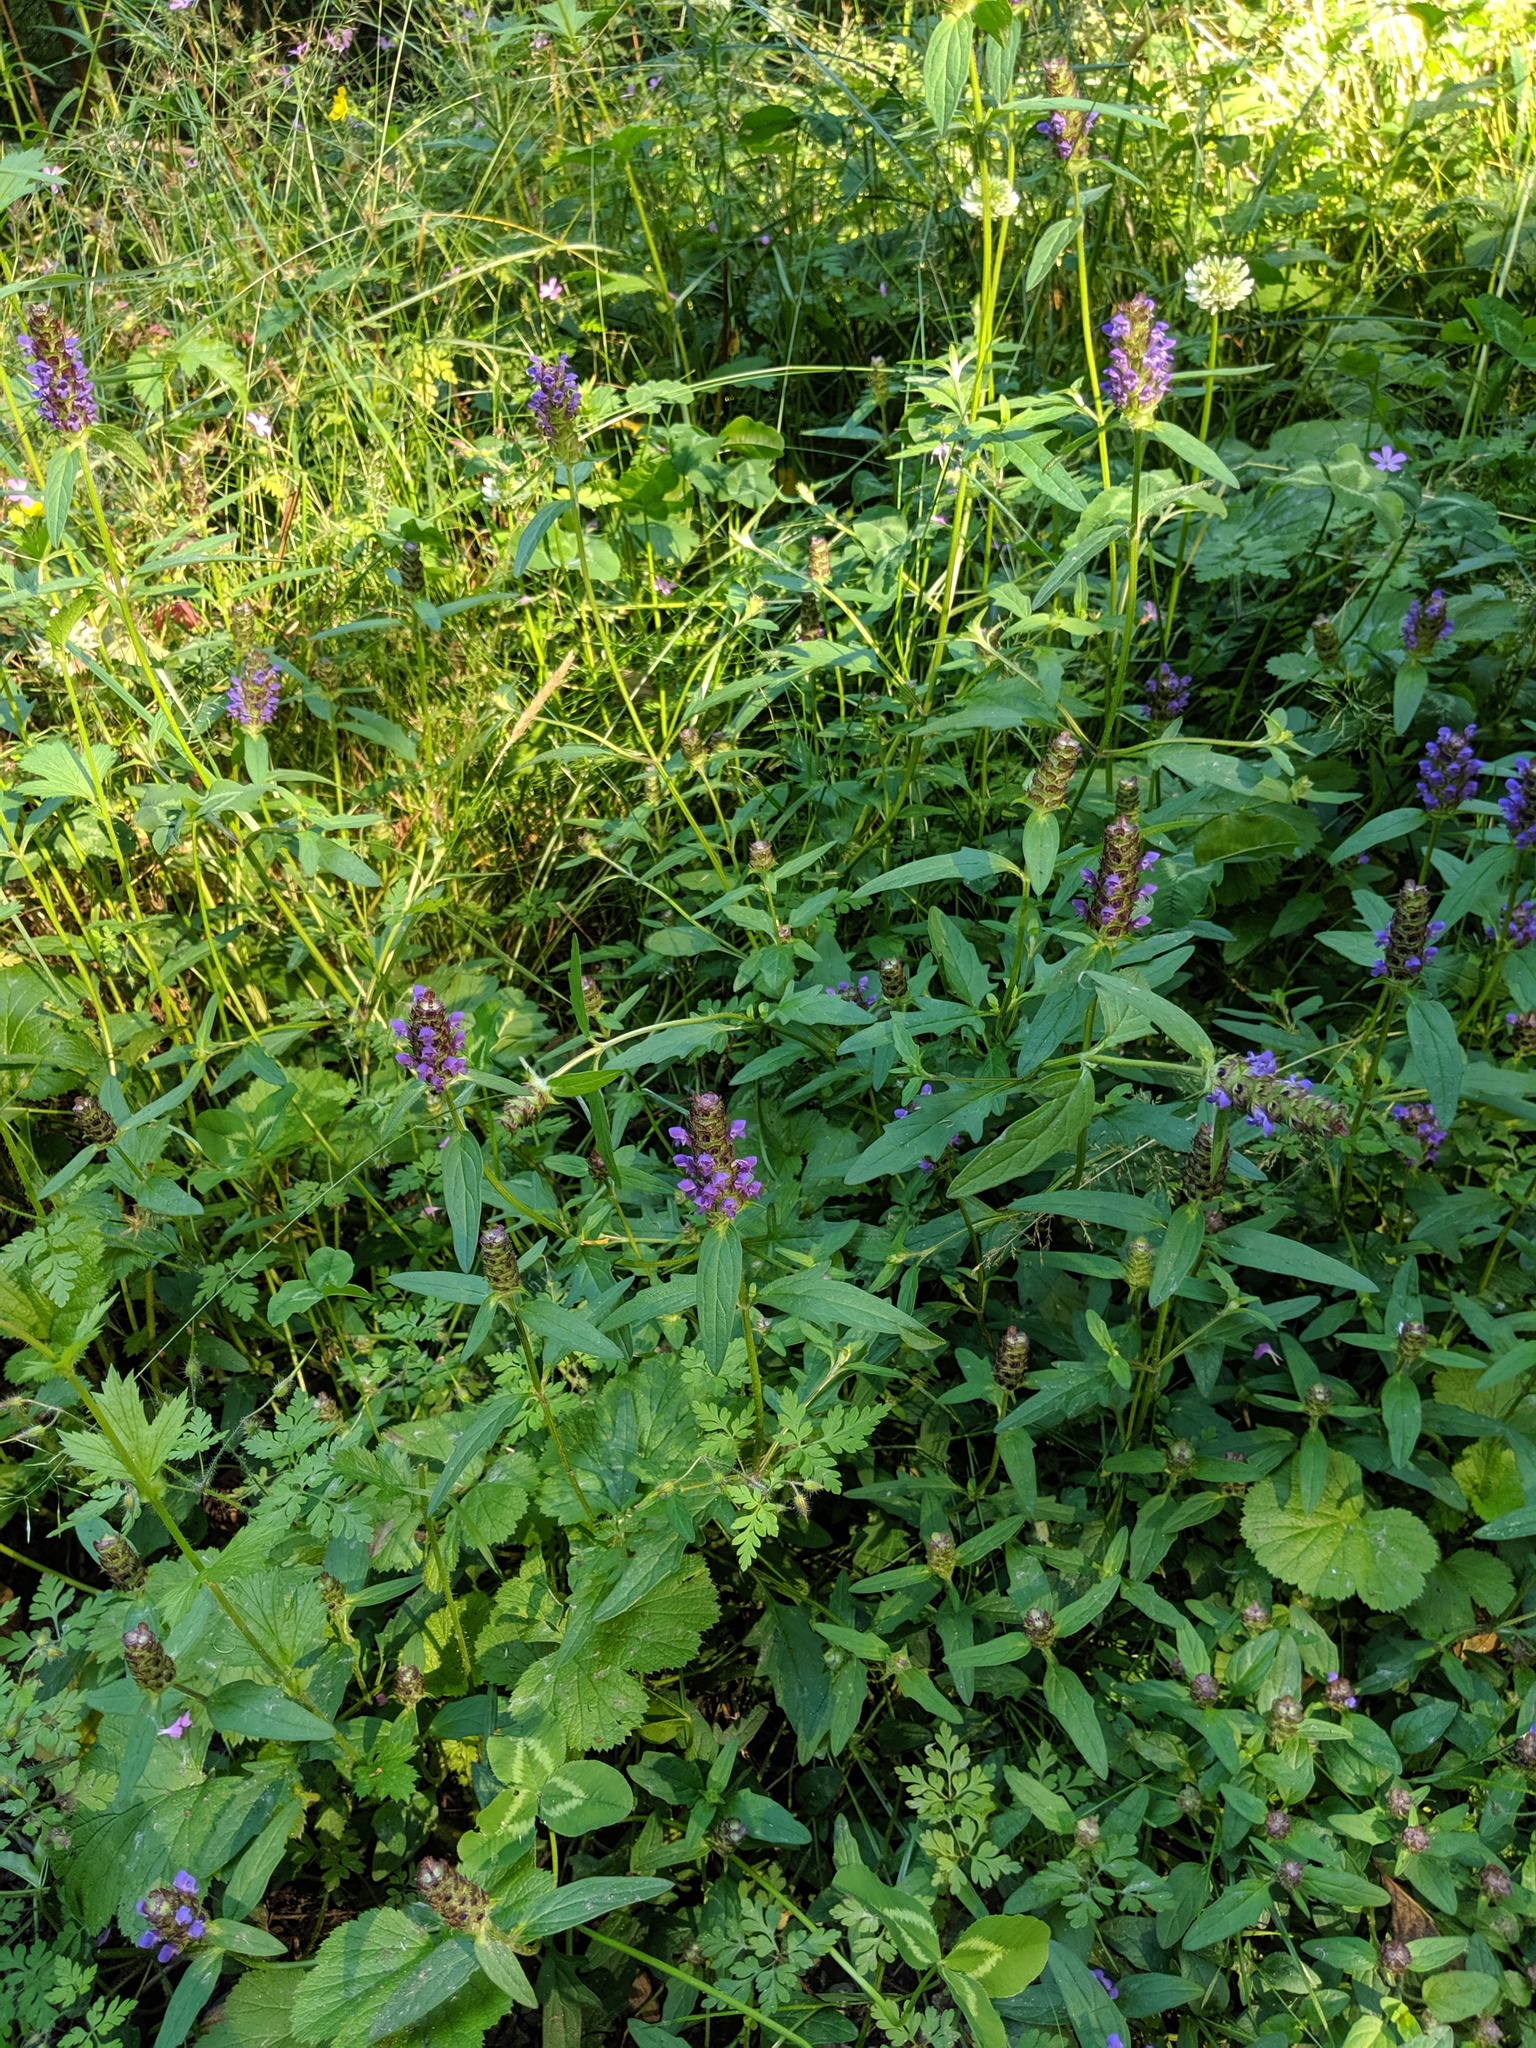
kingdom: Plantae
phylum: Tracheophyta
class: Magnoliopsida
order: Lamiales
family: Lamiaceae
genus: Prunella
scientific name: Prunella vulgaris
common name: Heal-all
